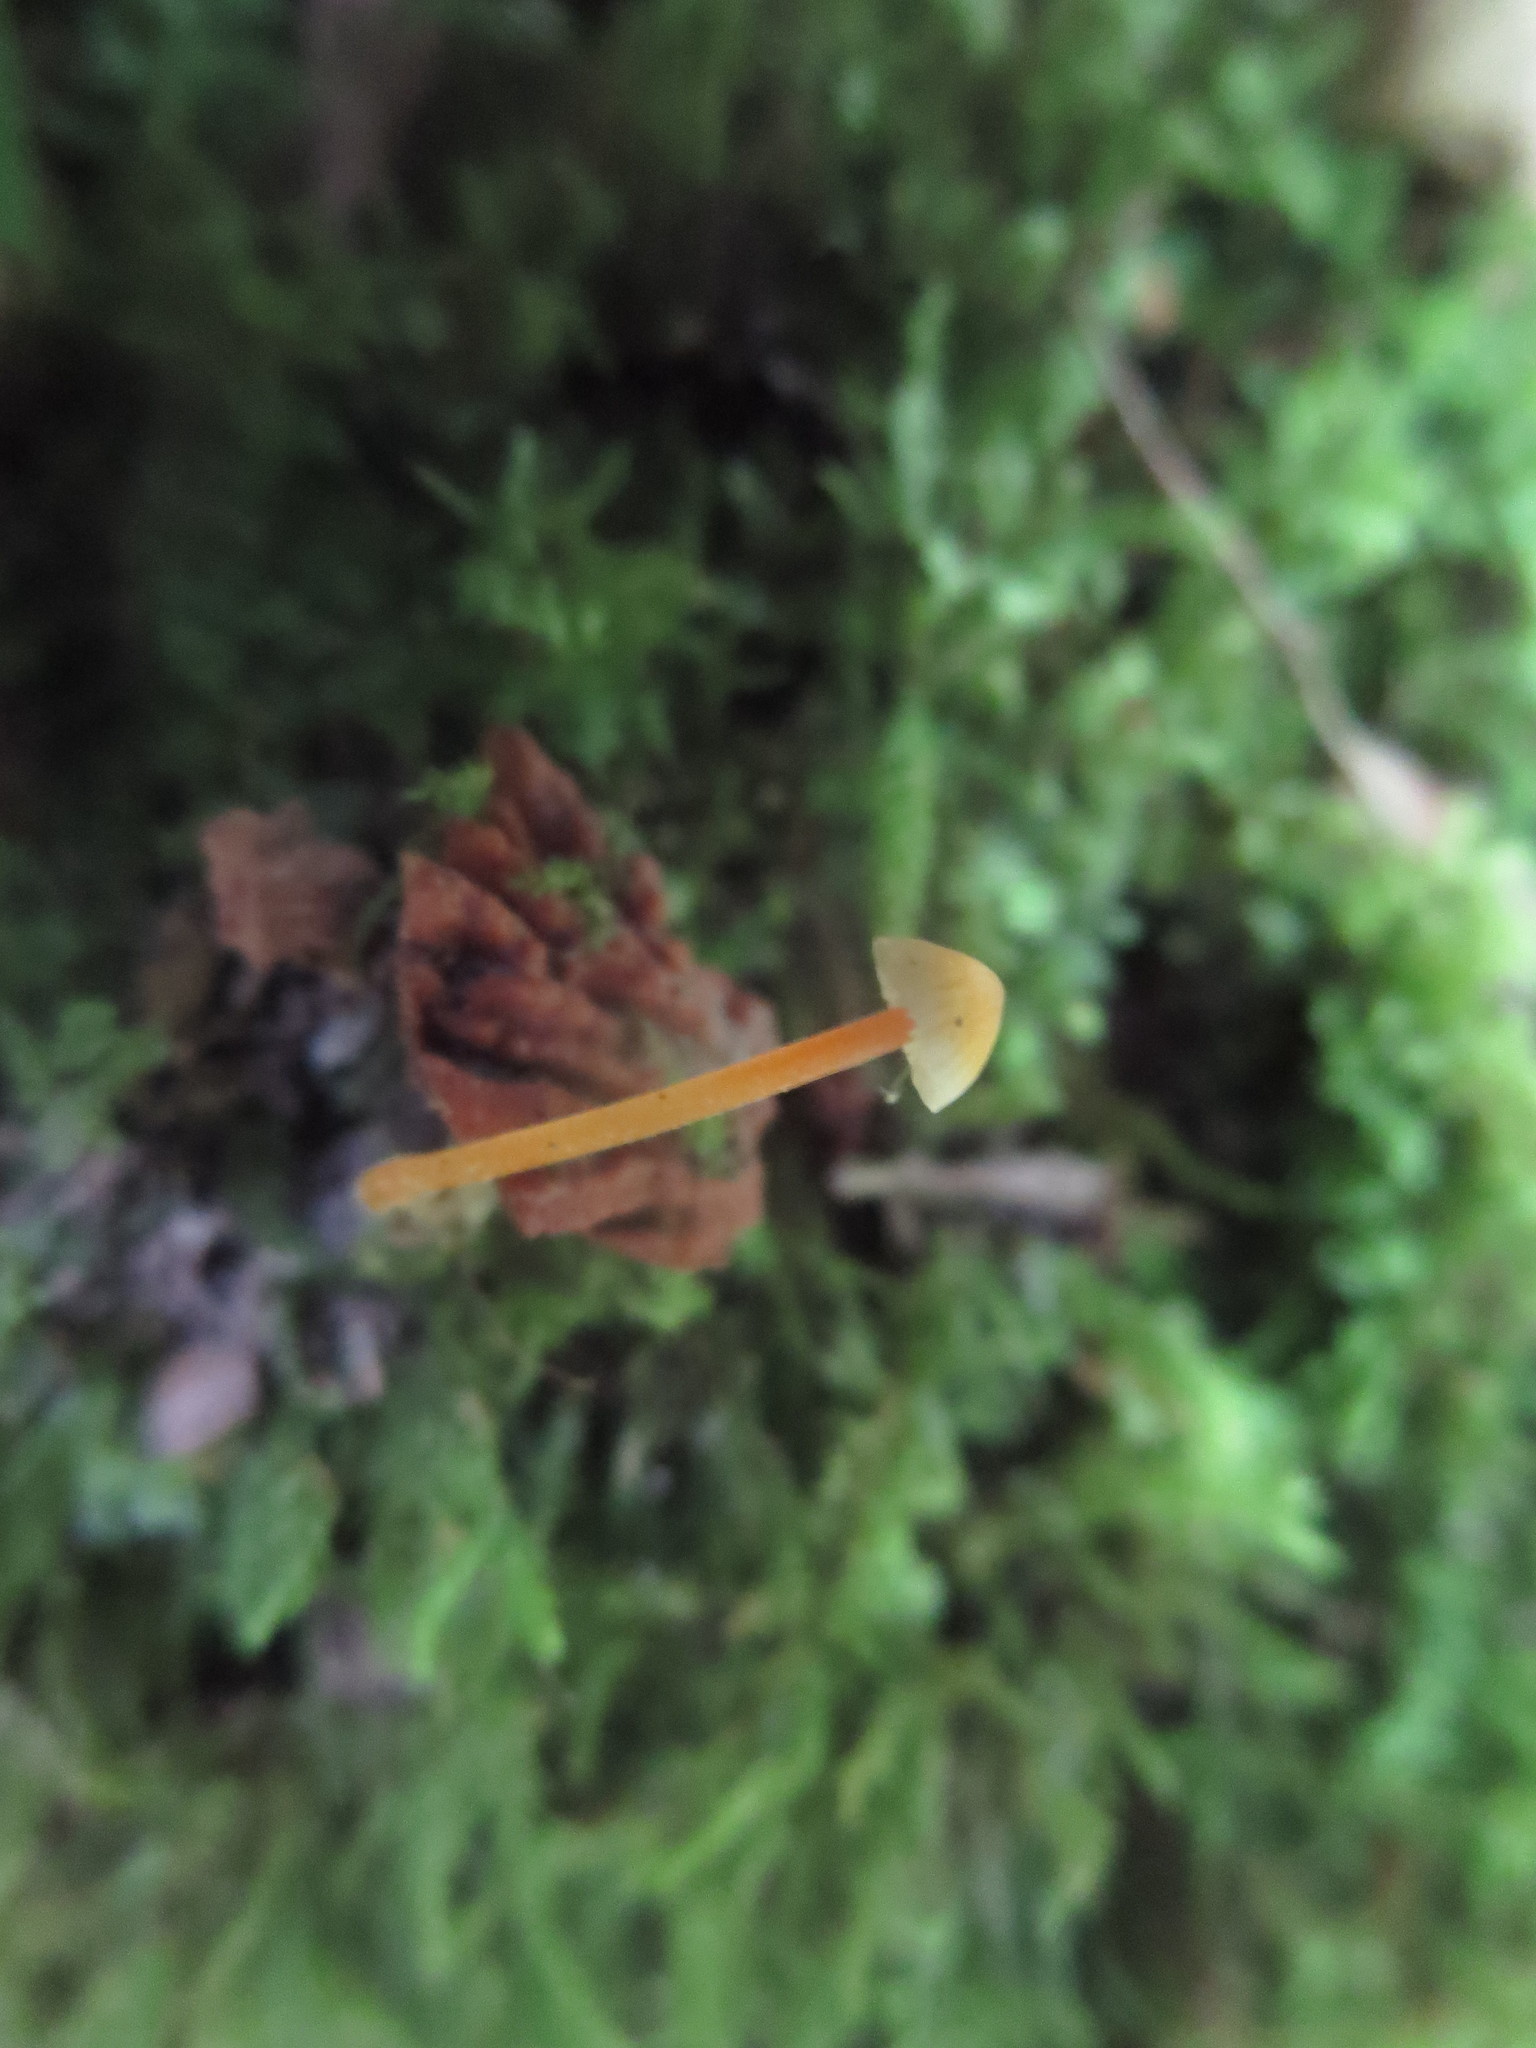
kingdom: Fungi
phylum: Basidiomycota
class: Agaricomycetes
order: Agaricales
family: Mycenaceae
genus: Mycena
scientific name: Mycena crocea
